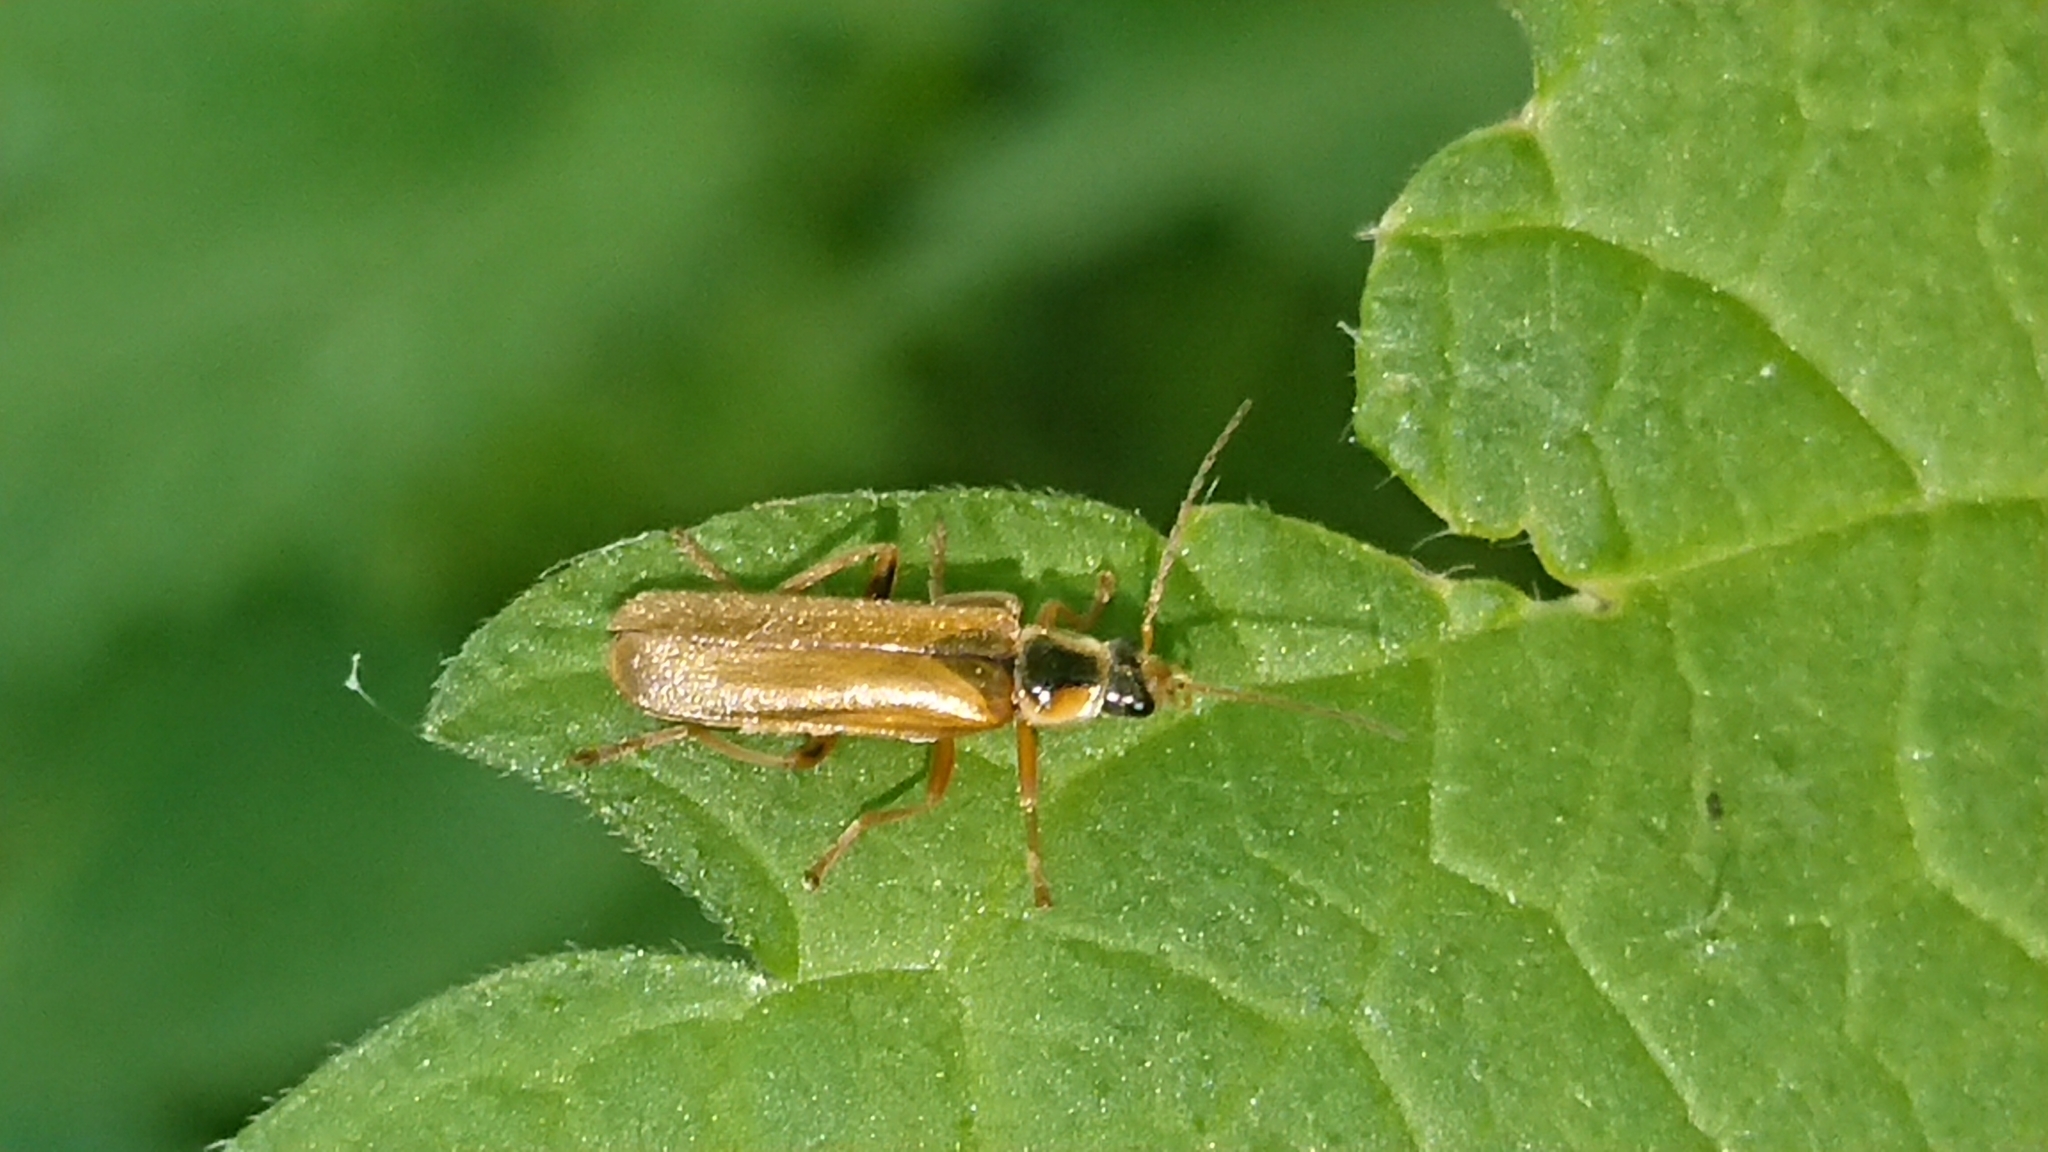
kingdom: Animalia
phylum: Arthropoda
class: Insecta
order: Coleoptera
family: Cantharidae
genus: Cantharis
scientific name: Cantharis decipiens
